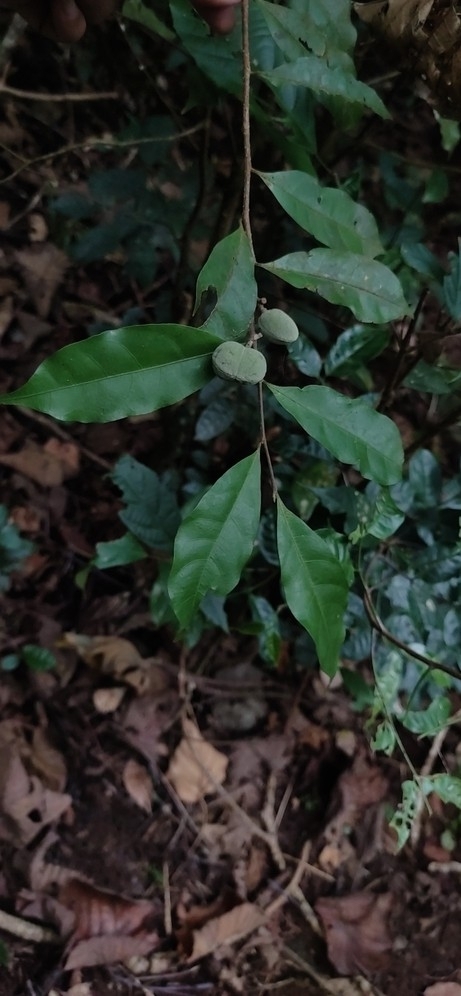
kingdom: Plantae
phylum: Tracheophyta
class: Magnoliopsida
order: Malpighiales
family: Dichapetalaceae
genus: Dichapetalum
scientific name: Dichapetalum gelonioides
